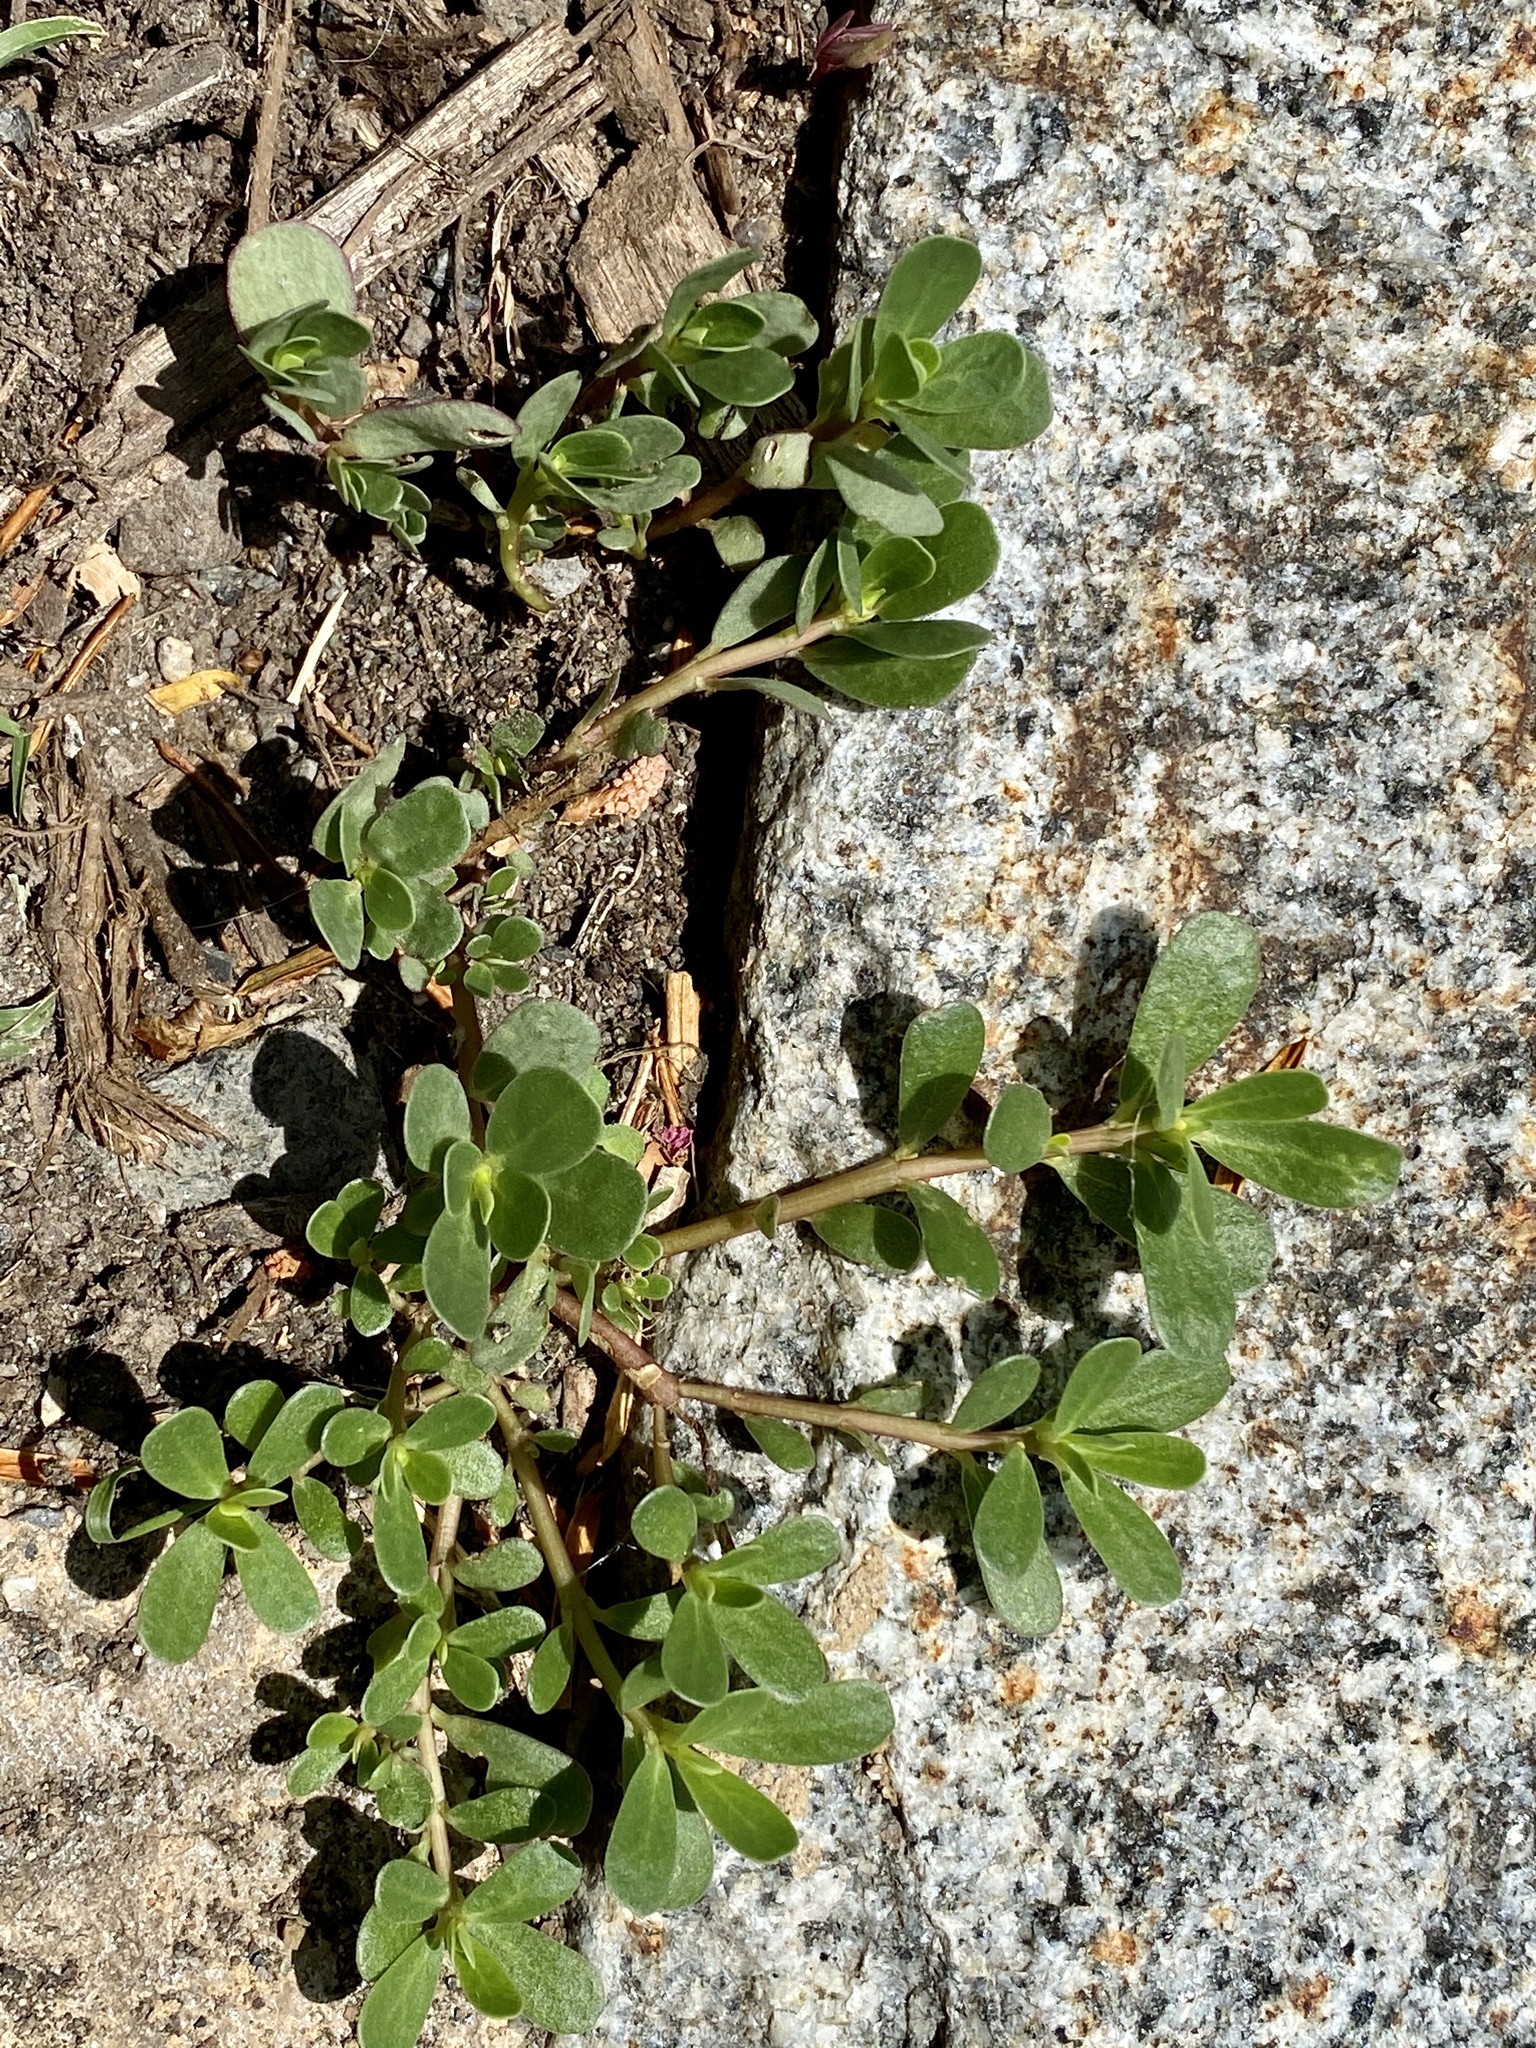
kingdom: Plantae
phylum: Tracheophyta
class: Magnoliopsida
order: Caryophyllales
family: Portulacaceae
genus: Portulaca
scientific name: Portulaca oleracea
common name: Common purslane
